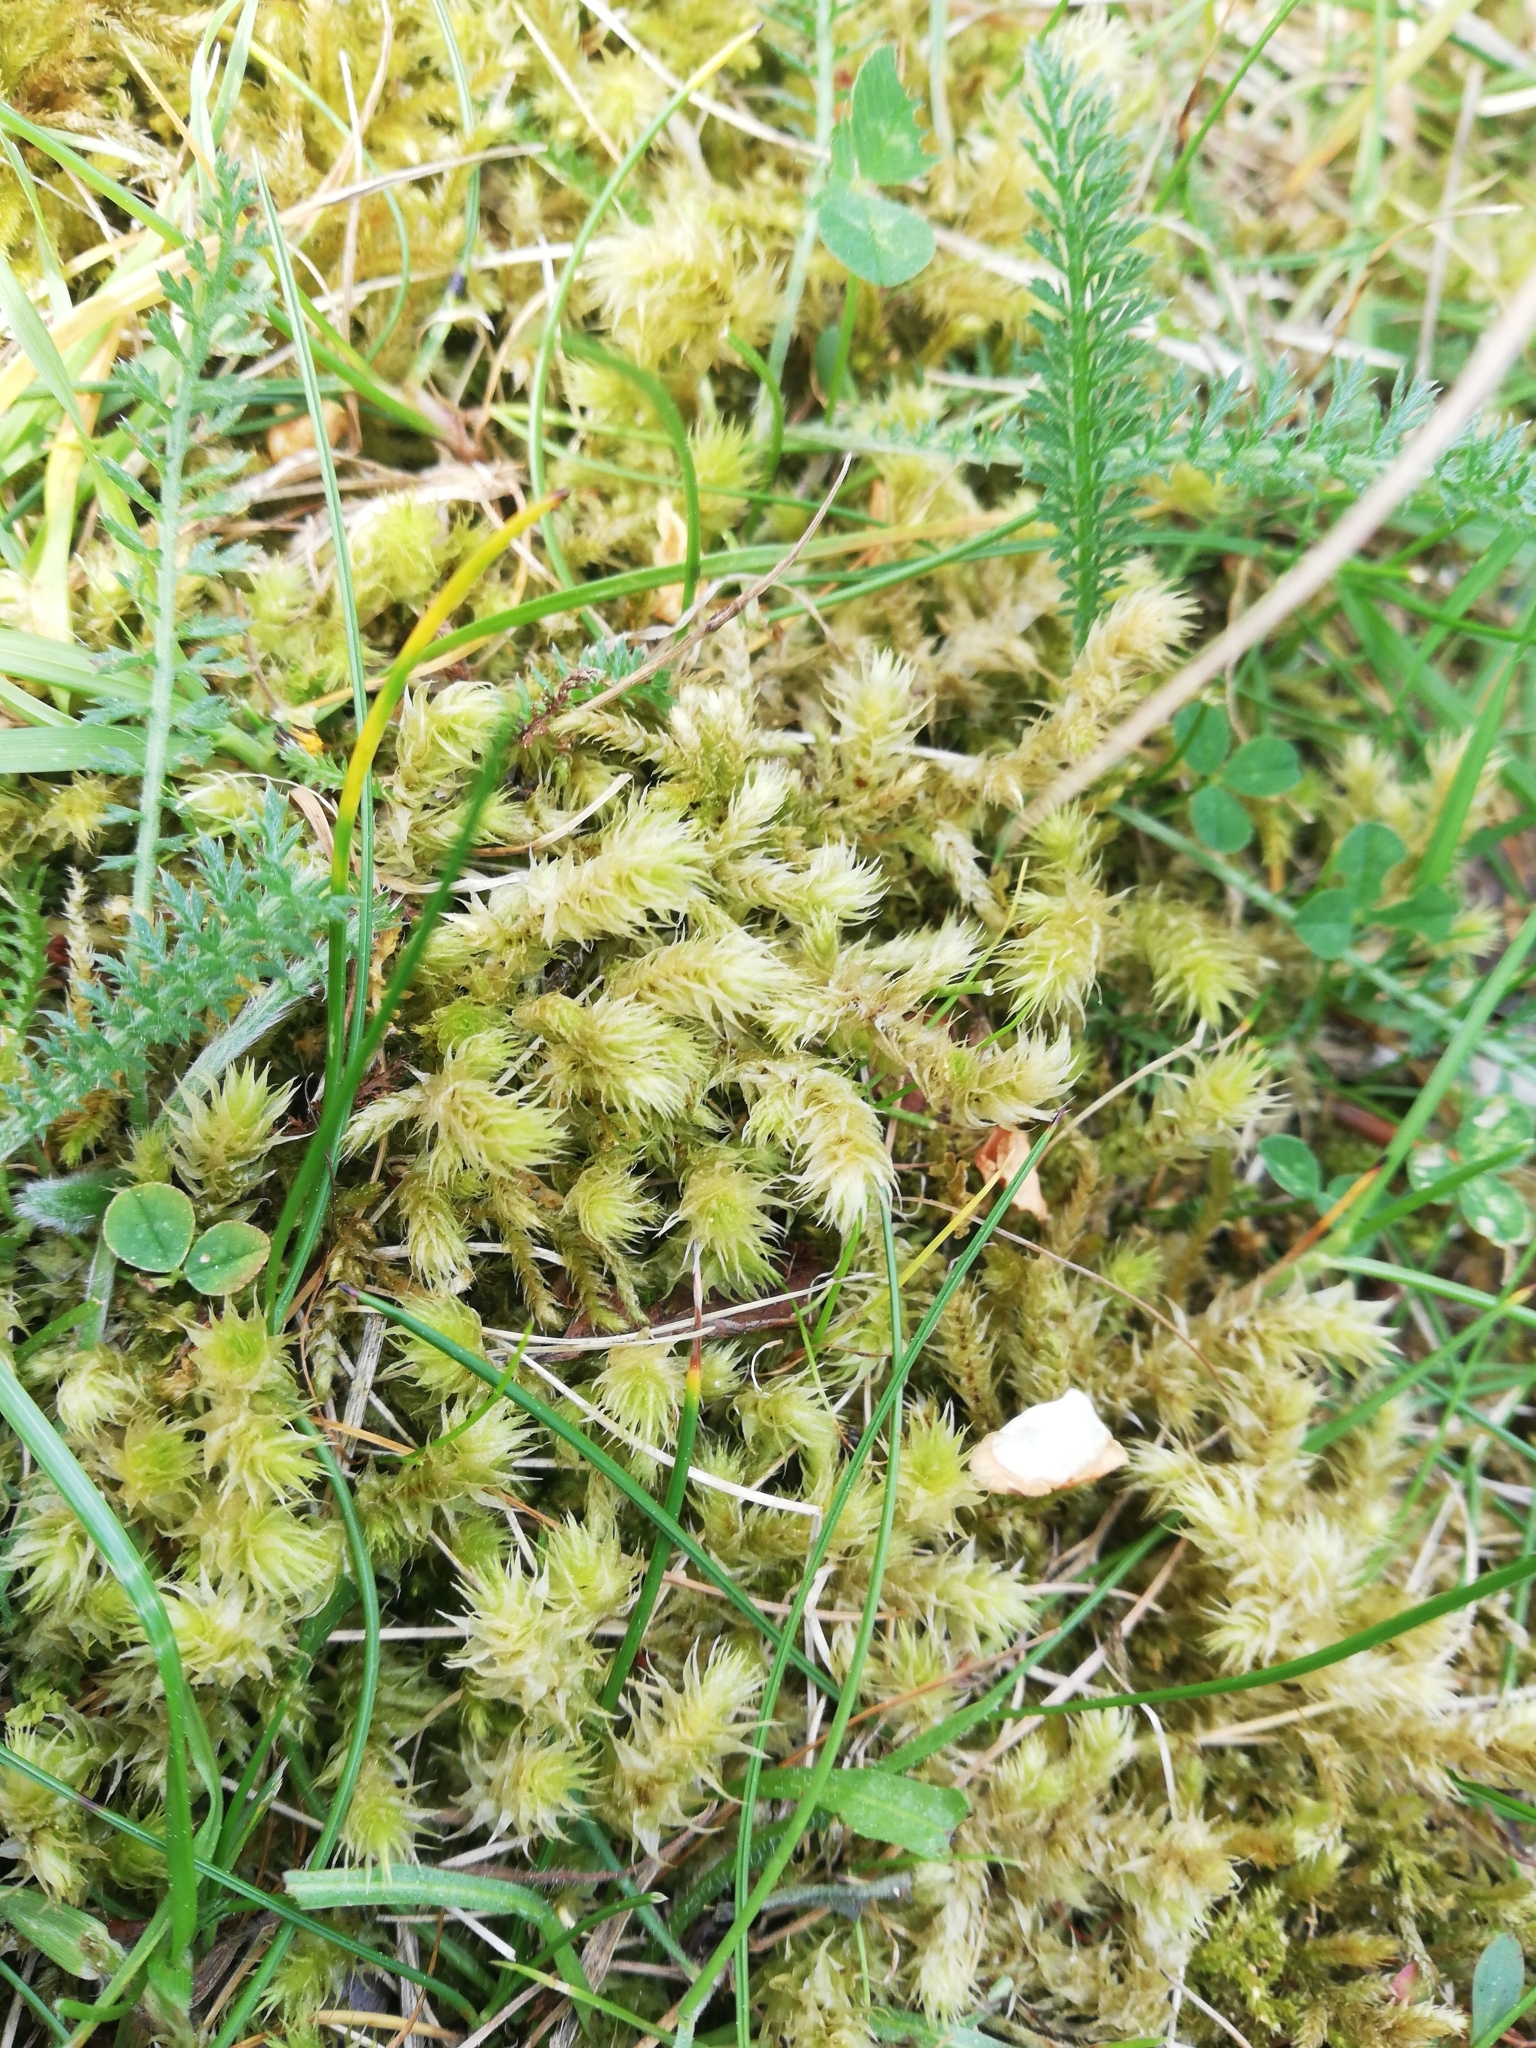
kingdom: Plantae
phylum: Bryophyta
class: Bryopsida
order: Hypnales
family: Hylocomiaceae
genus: Hylocomiadelphus
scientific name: Hylocomiadelphus triquetrus
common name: Rough goose neck moss
